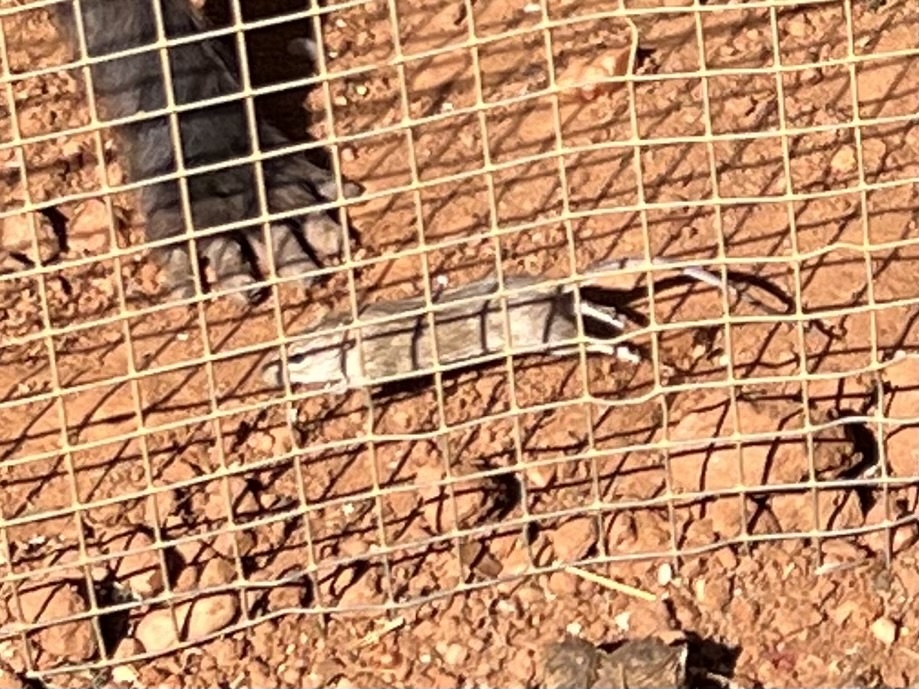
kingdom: Animalia
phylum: Chordata
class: Mammalia
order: Rodentia
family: Muridae
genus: Rhabdomys
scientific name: Rhabdomys pumilio
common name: Xeric four-striped grass rat
